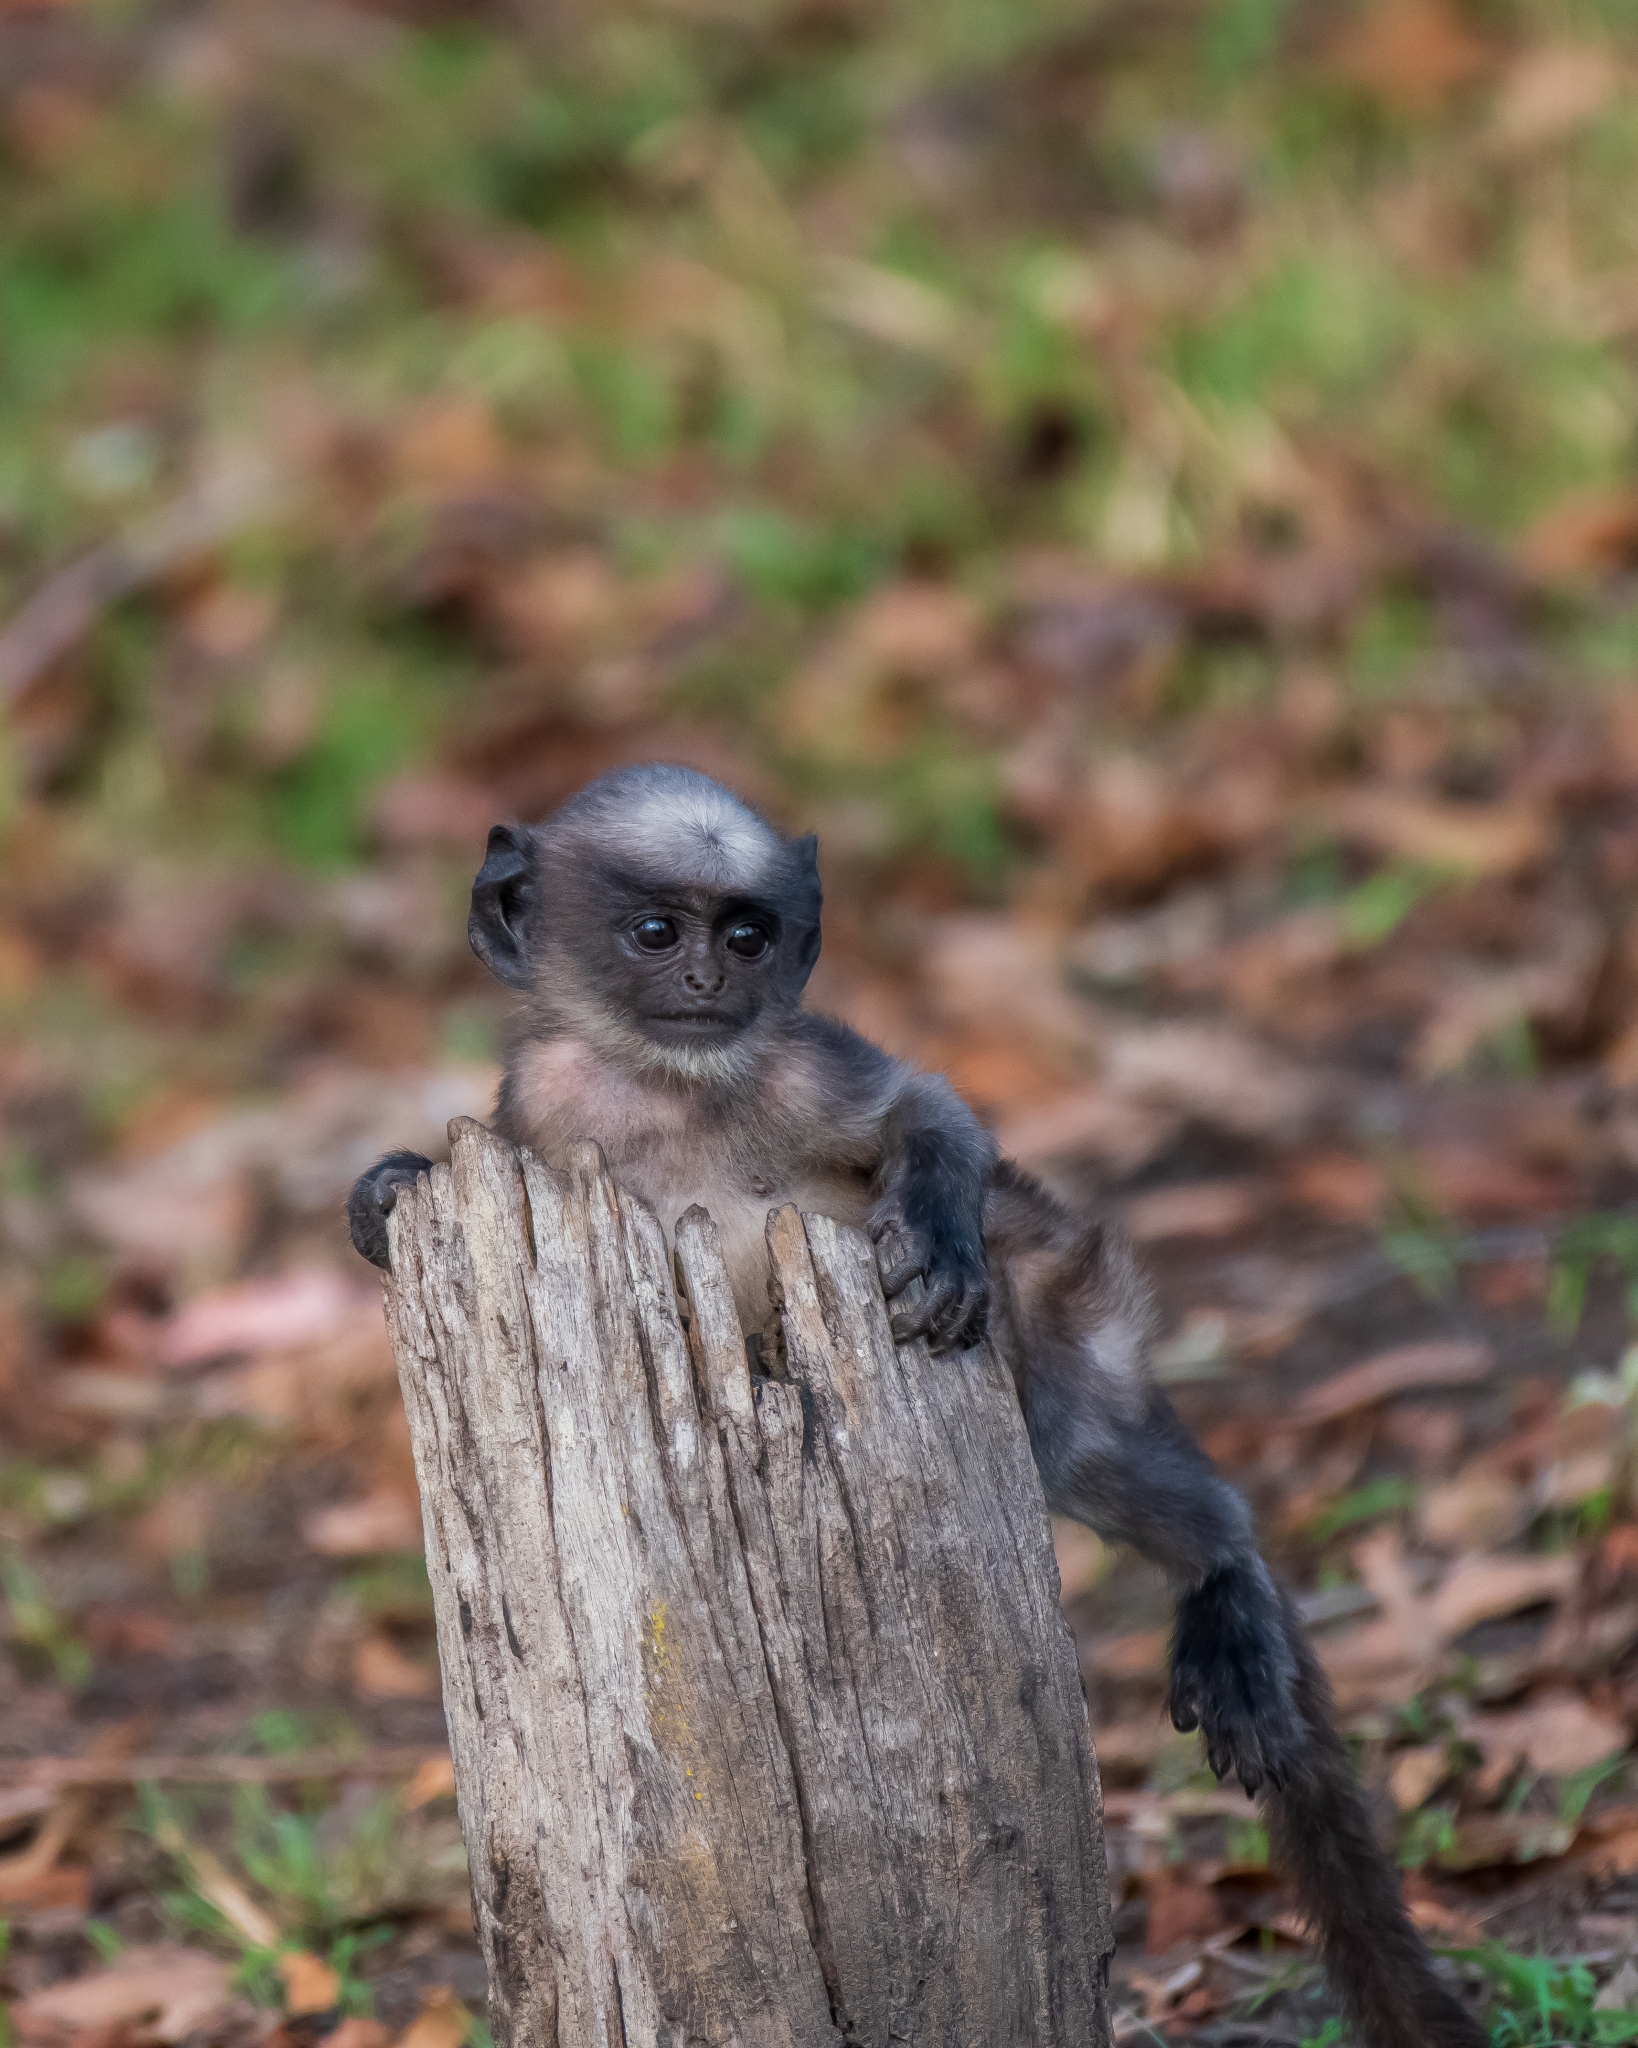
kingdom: Animalia
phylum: Chordata
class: Mammalia
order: Primates
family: Cercopithecidae
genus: Semnopithecus
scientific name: Semnopithecus hypoleucos
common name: Black-footed gray langur
